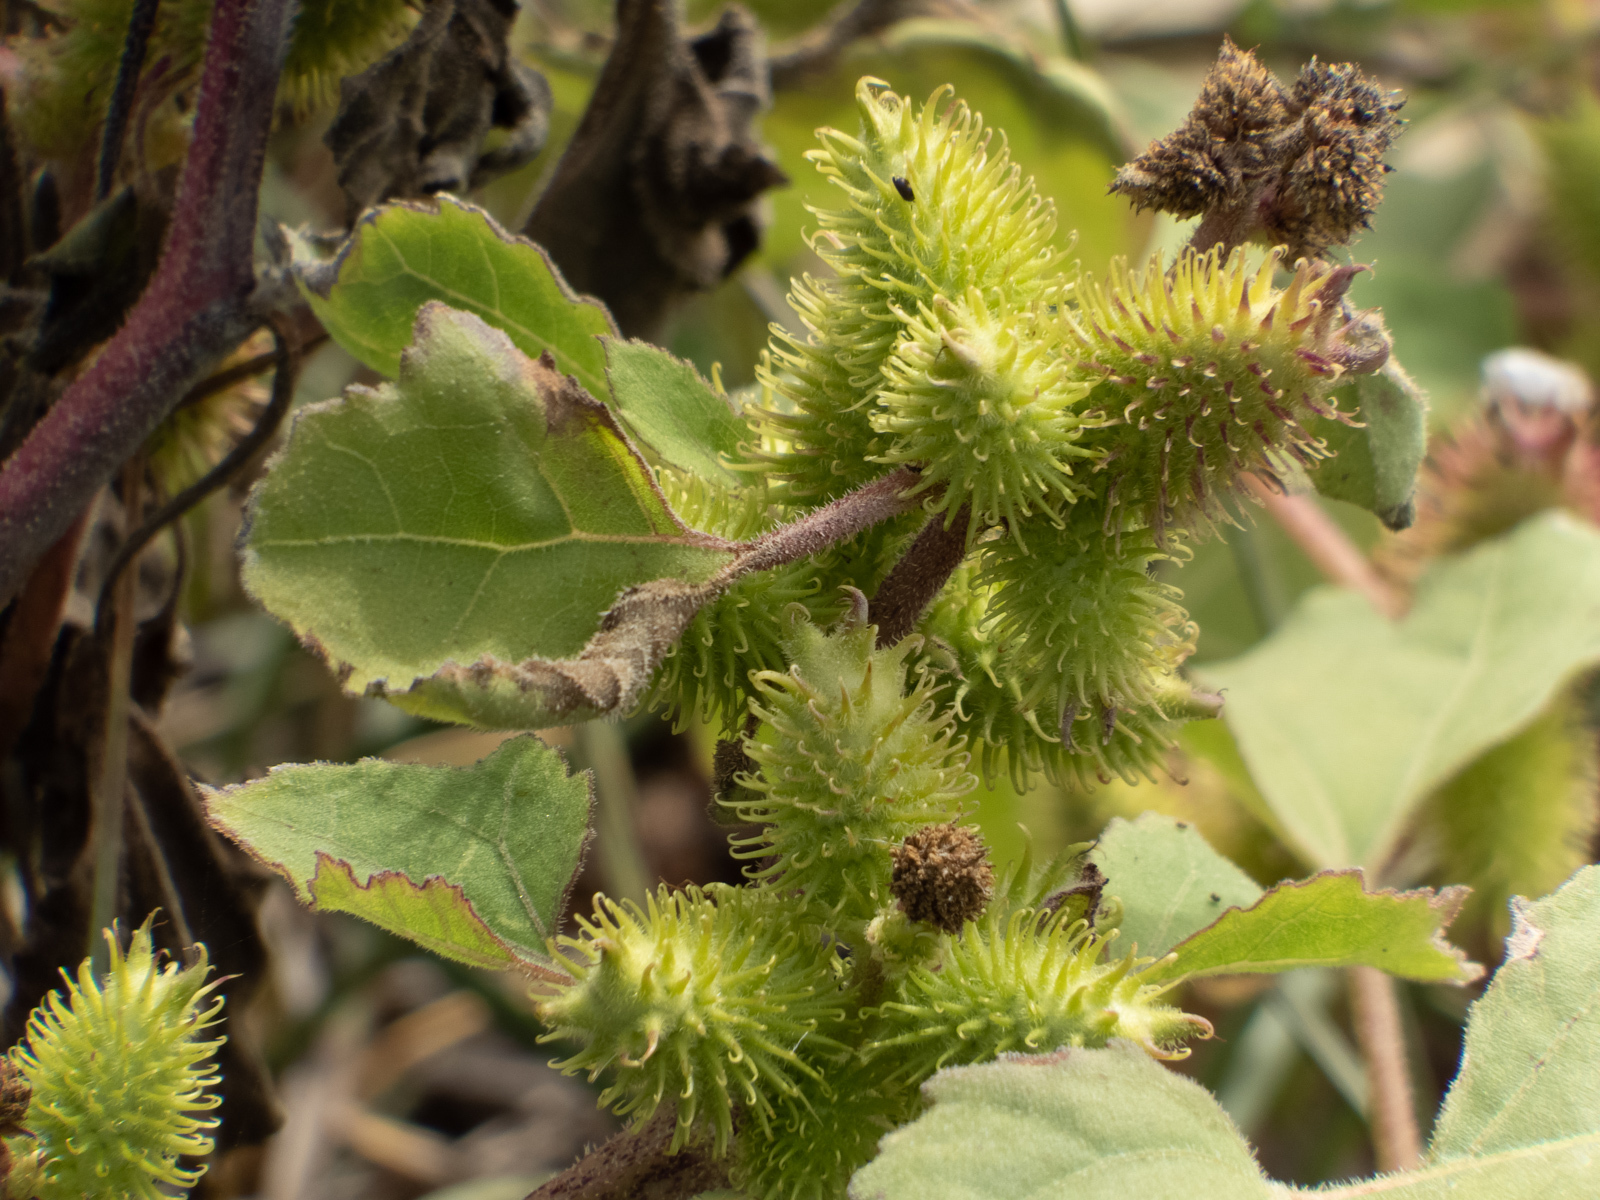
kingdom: Plantae
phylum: Tracheophyta
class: Magnoliopsida
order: Asterales
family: Asteraceae
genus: Xanthium
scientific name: Xanthium strumarium
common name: Rough cocklebur
